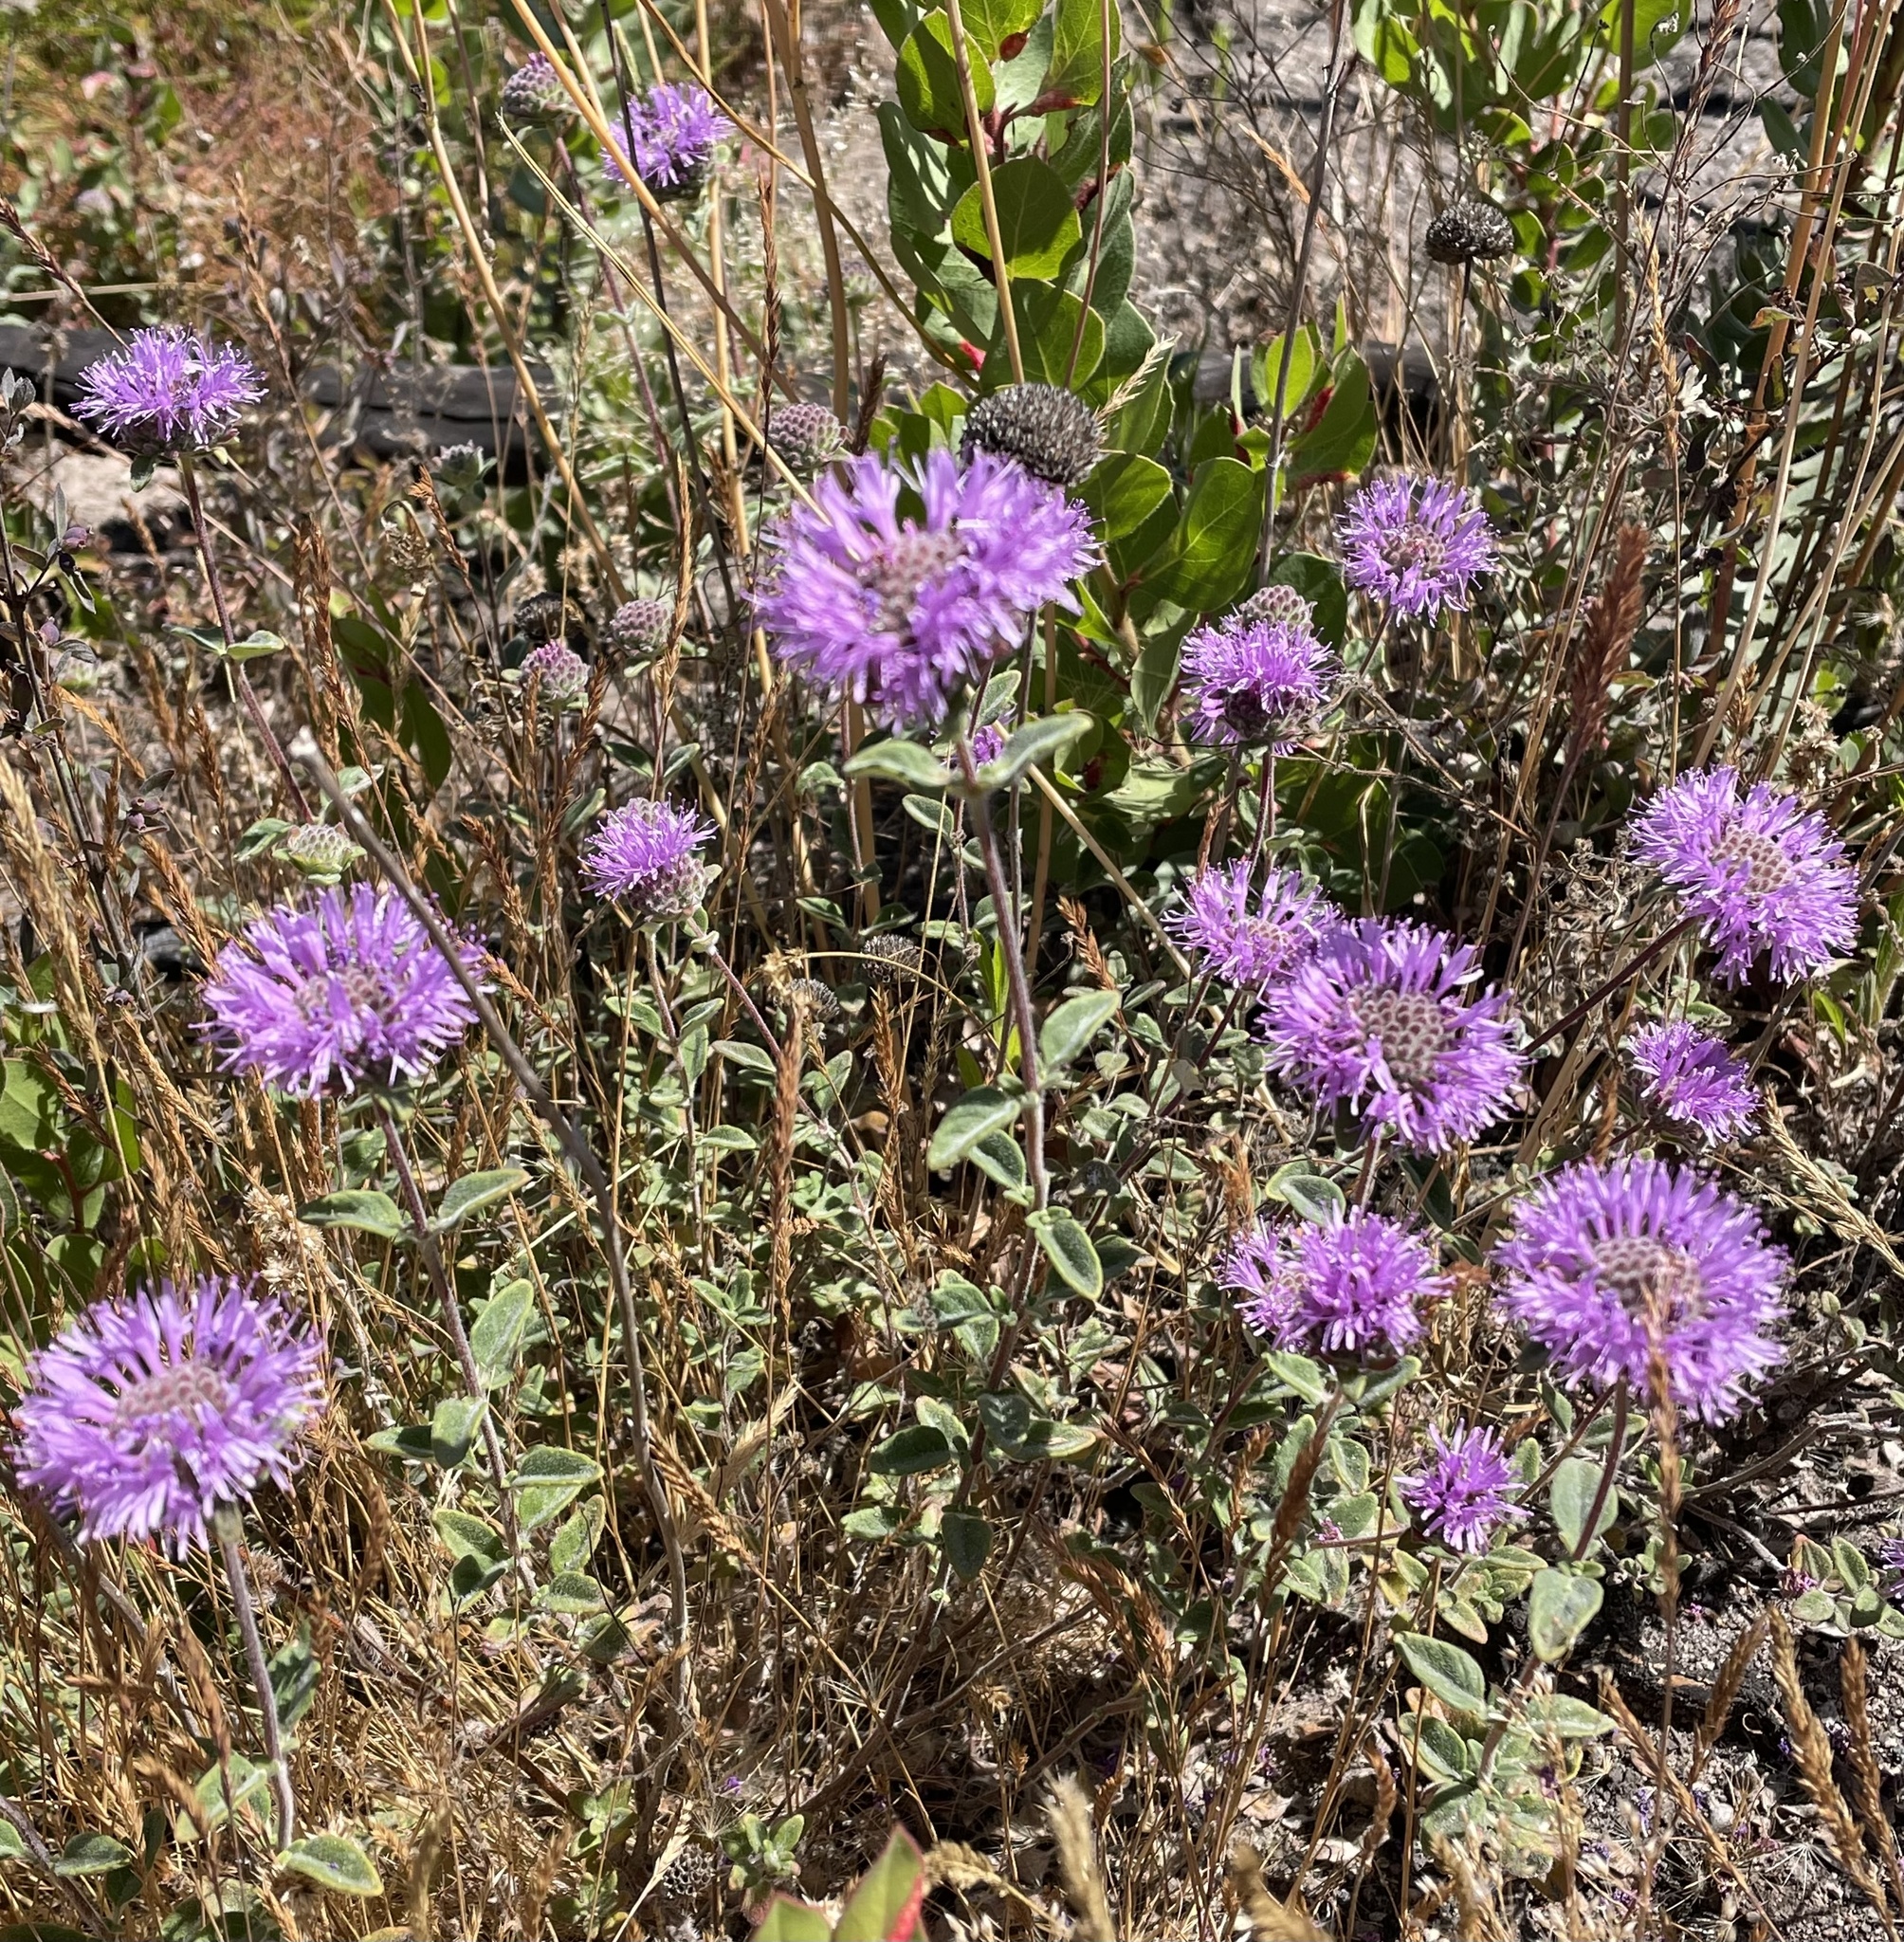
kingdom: Plantae
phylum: Tracheophyta
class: Magnoliopsida
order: Lamiales
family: Lamiaceae
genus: Monardella
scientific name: Monardella odoratissima
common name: Pacific monardella
